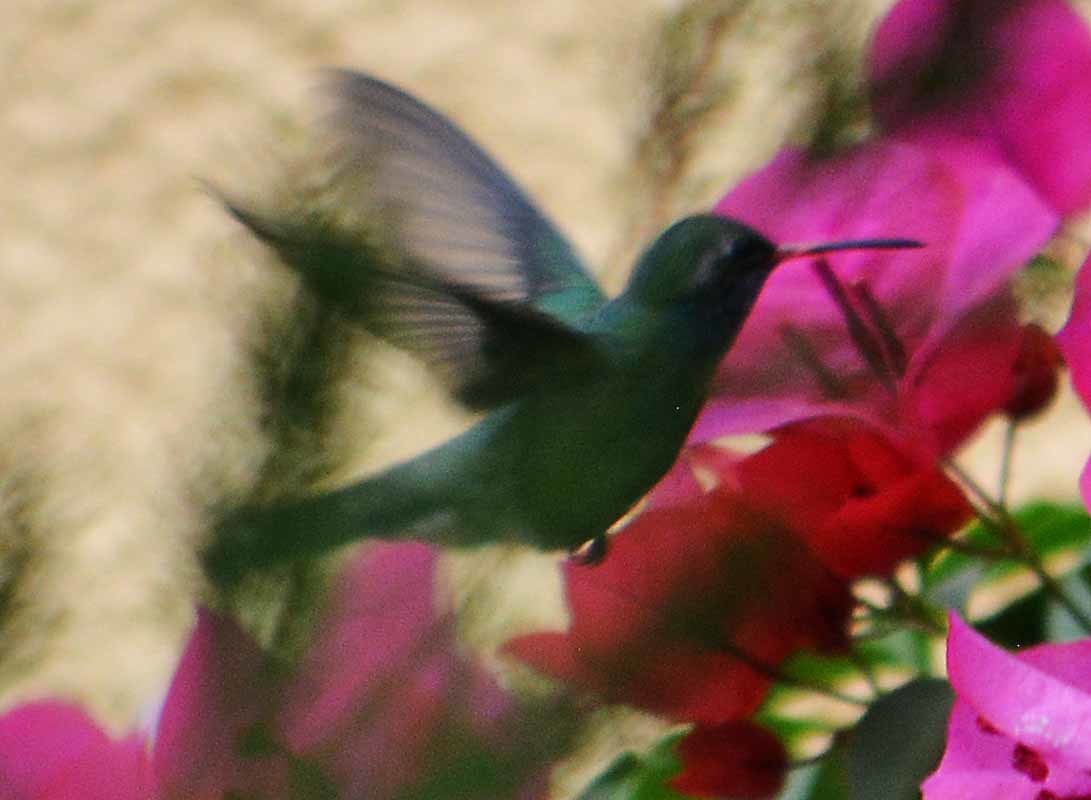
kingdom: Animalia
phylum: Chordata
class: Aves
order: Apodiformes
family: Trochilidae
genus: Cynanthus
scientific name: Cynanthus latirostris
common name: Broad-billed hummingbird
